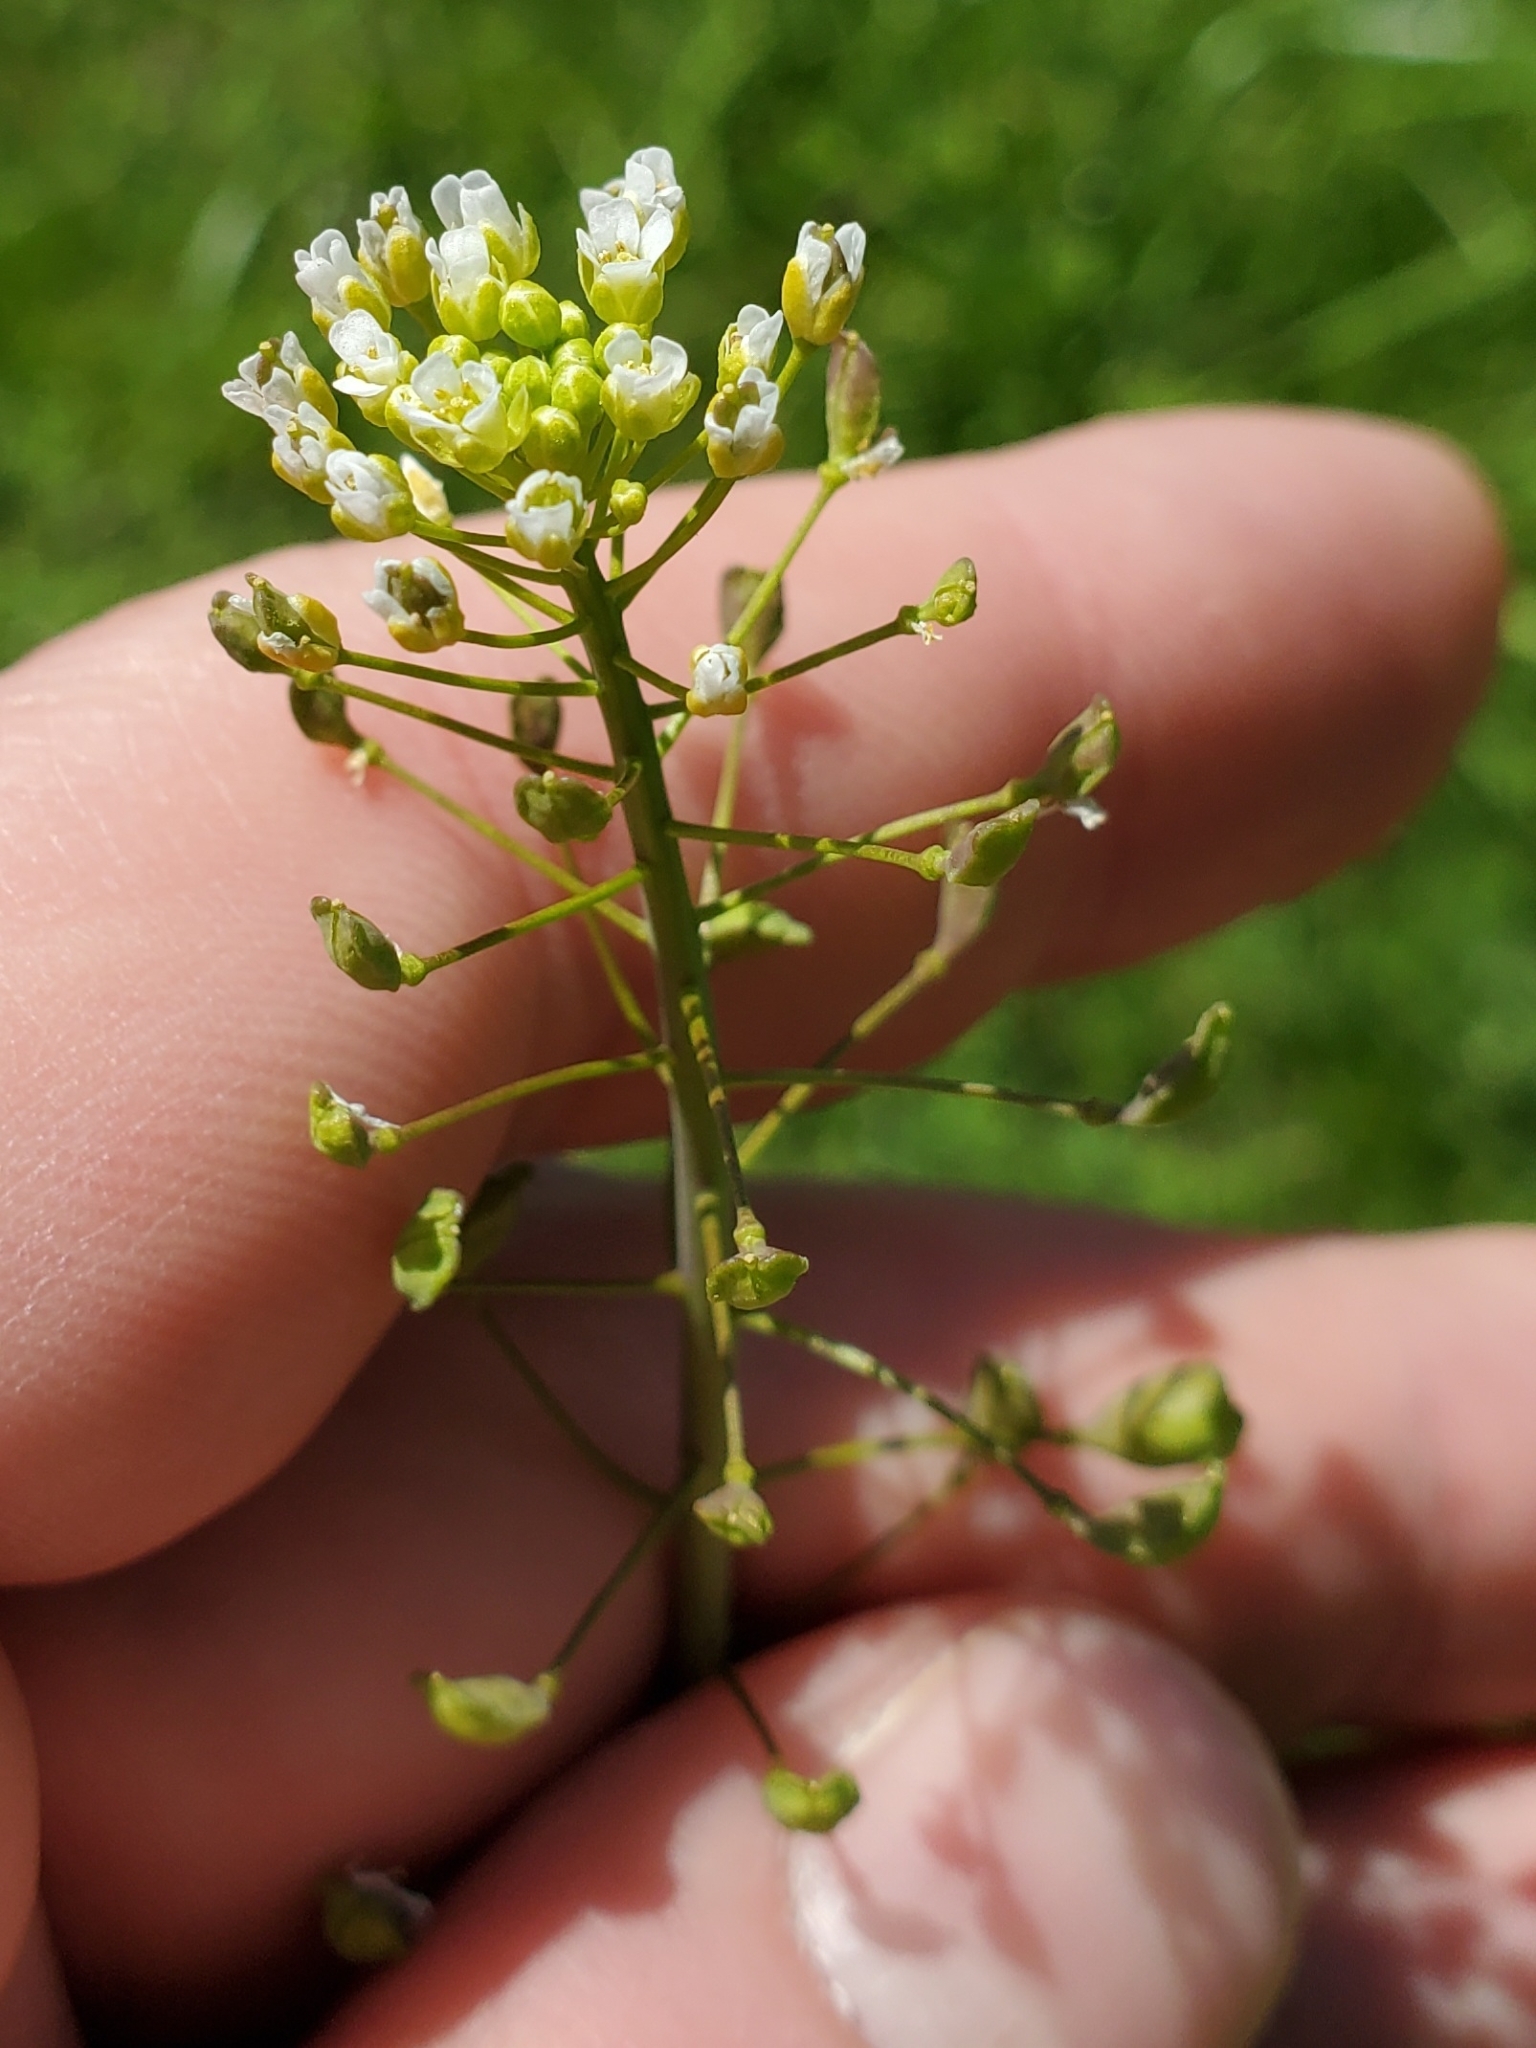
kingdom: Plantae
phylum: Tracheophyta
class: Magnoliopsida
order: Brassicales
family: Brassicaceae
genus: Mummenhoffia
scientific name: Mummenhoffia alliacea
